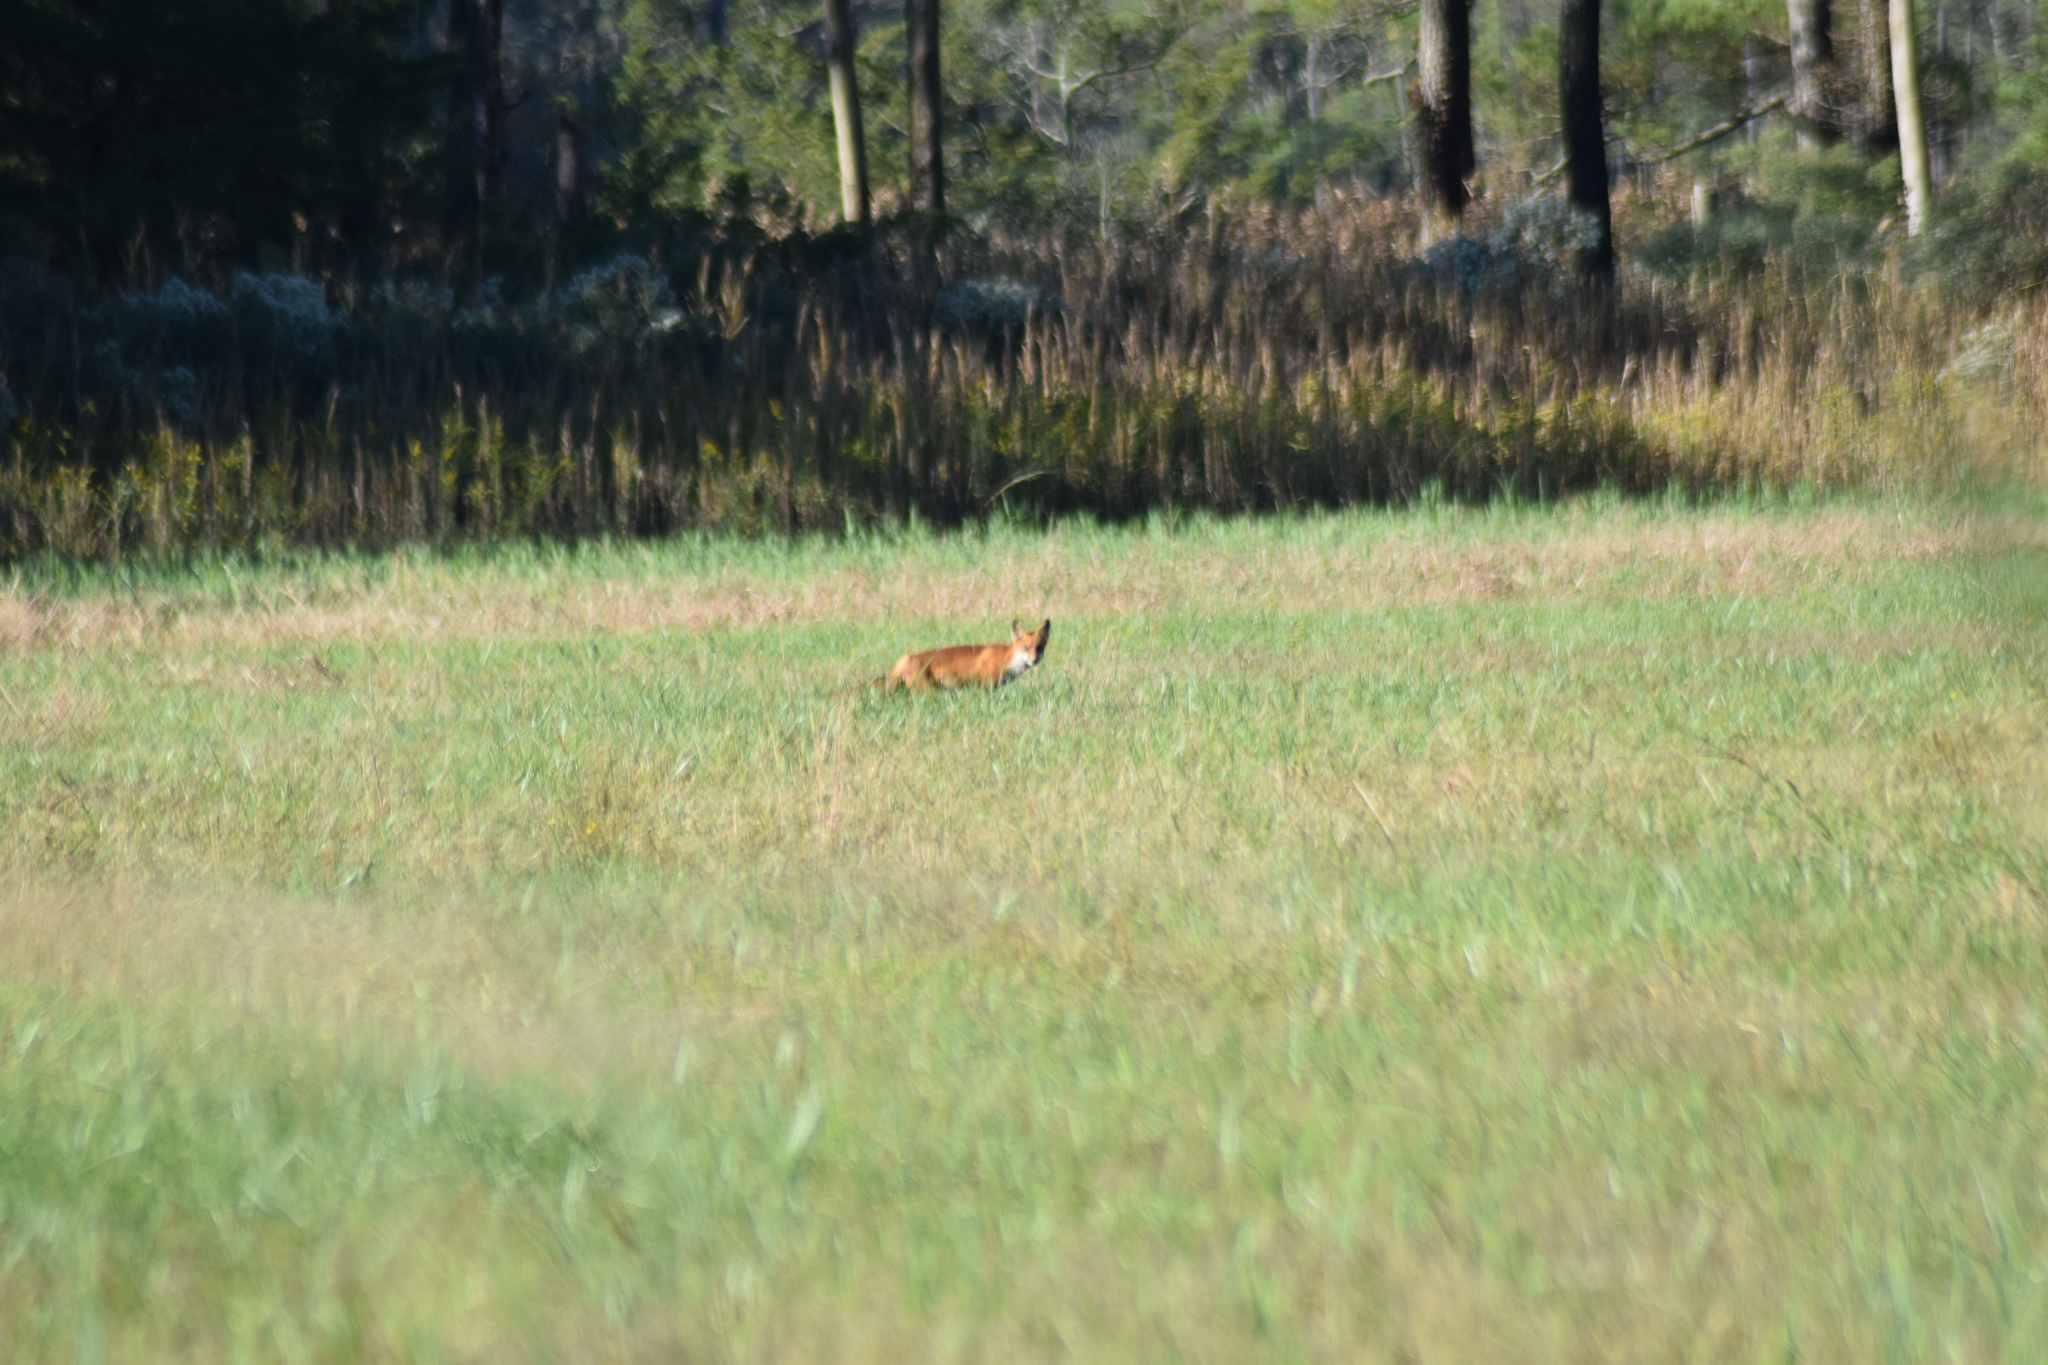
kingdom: Animalia
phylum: Chordata
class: Mammalia
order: Carnivora
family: Canidae
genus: Vulpes
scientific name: Vulpes vulpes
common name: Red fox
